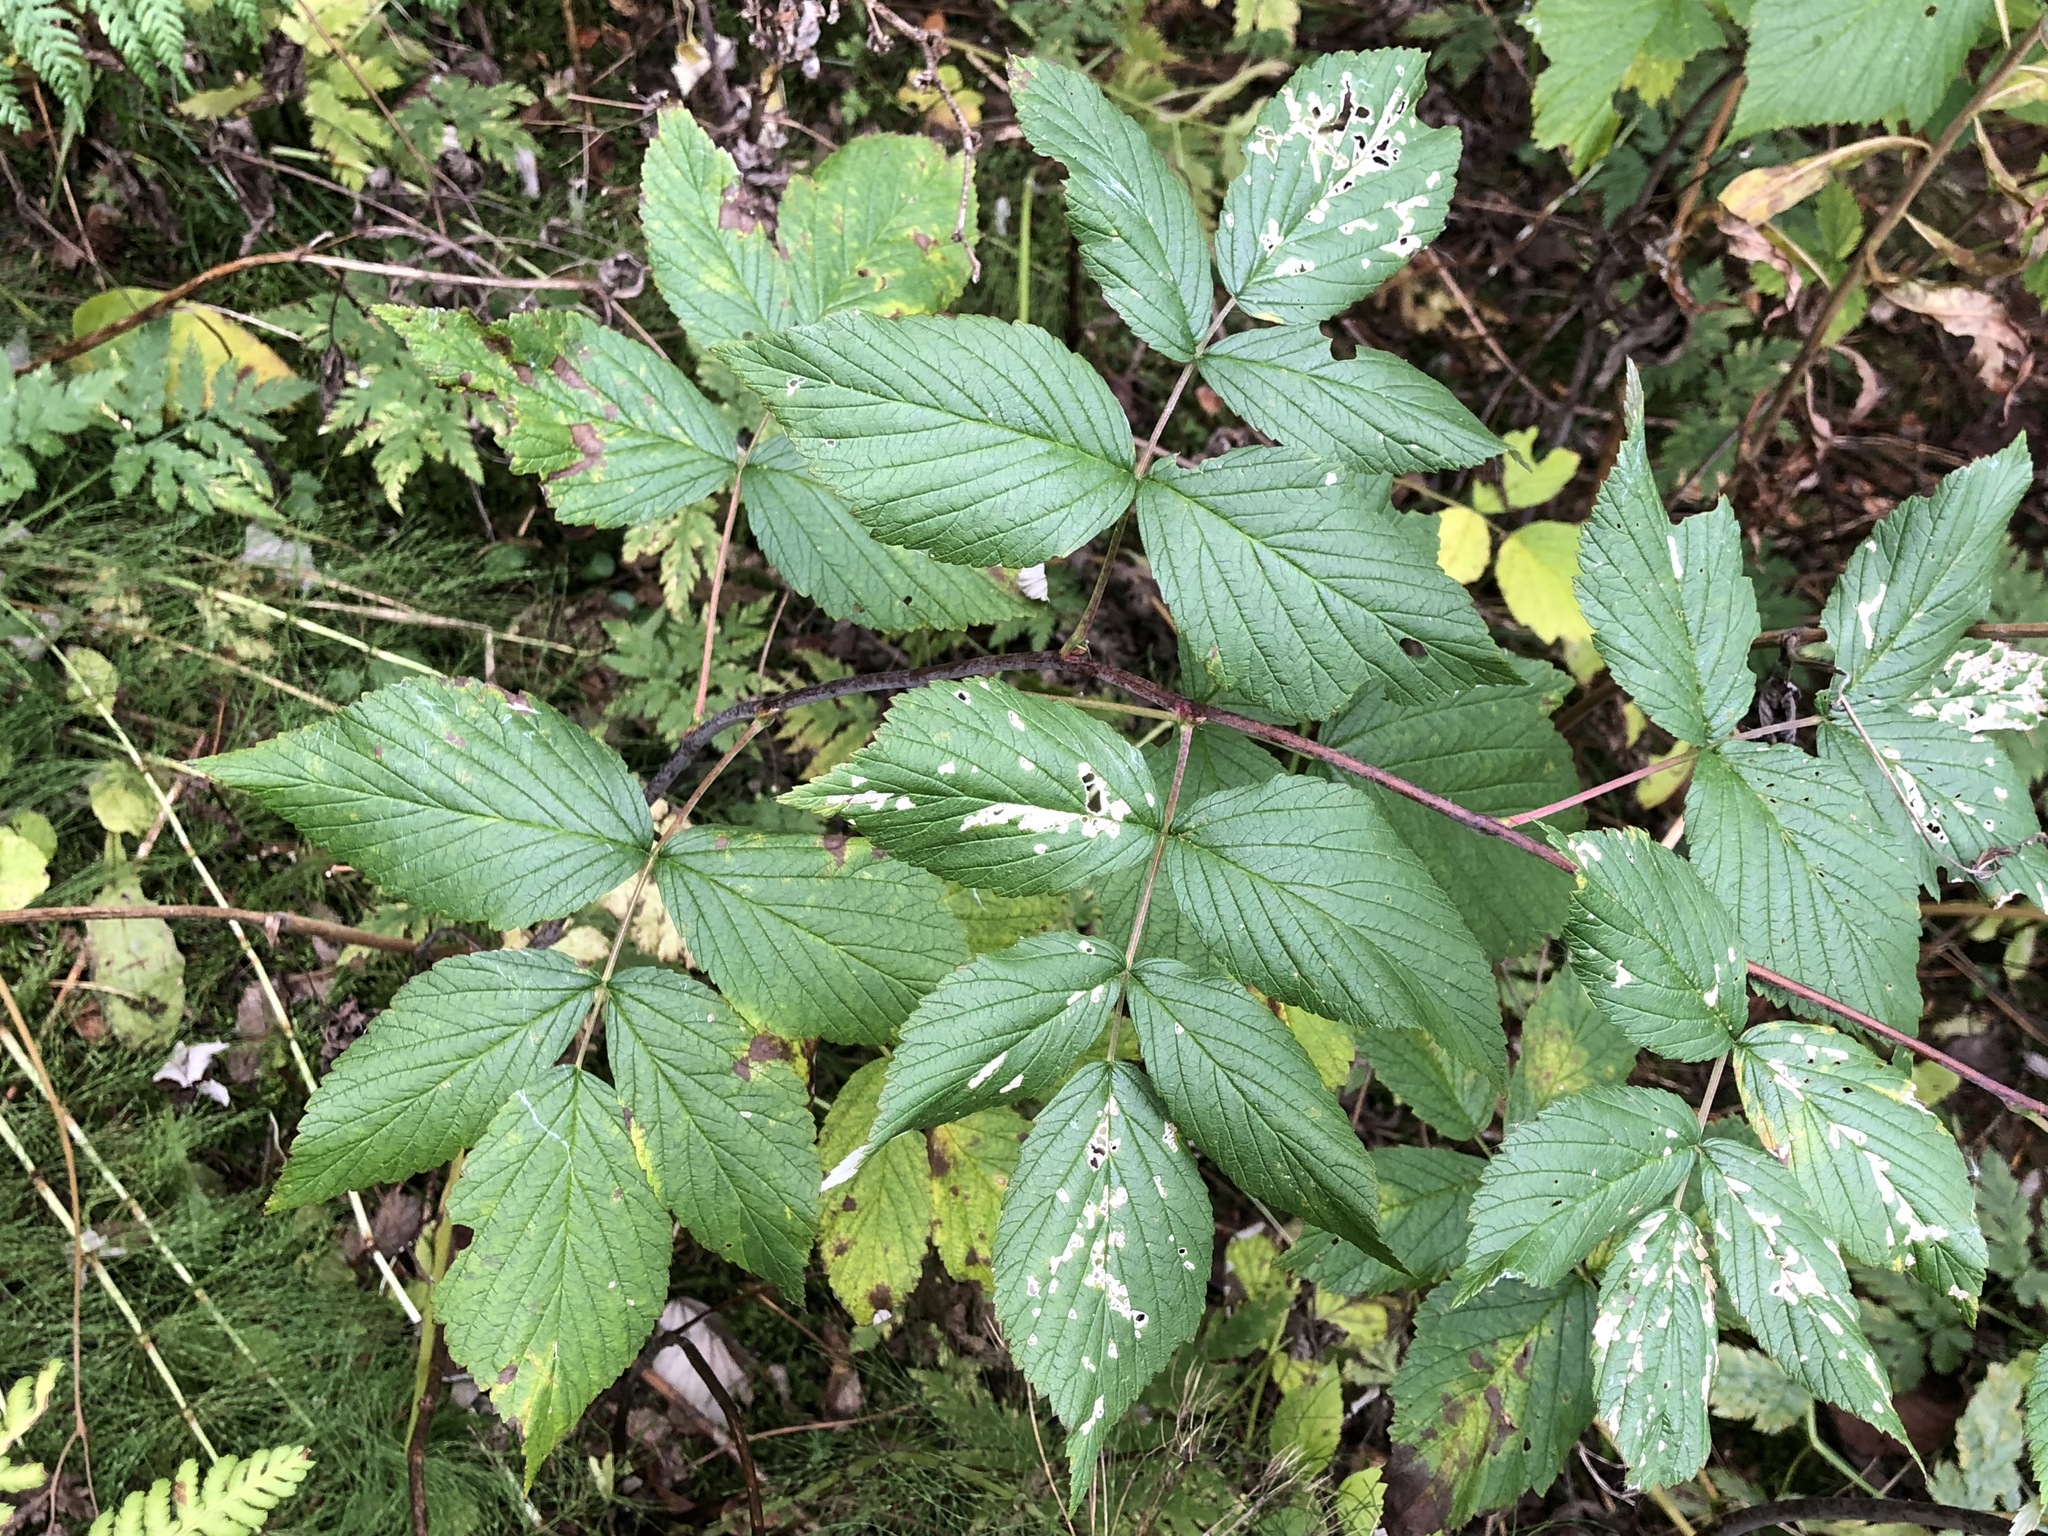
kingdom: Plantae
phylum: Tracheophyta
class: Magnoliopsida
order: Rosales
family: Rosaceae
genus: Rubus
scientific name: Rubus idaeus
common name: Raspberry
